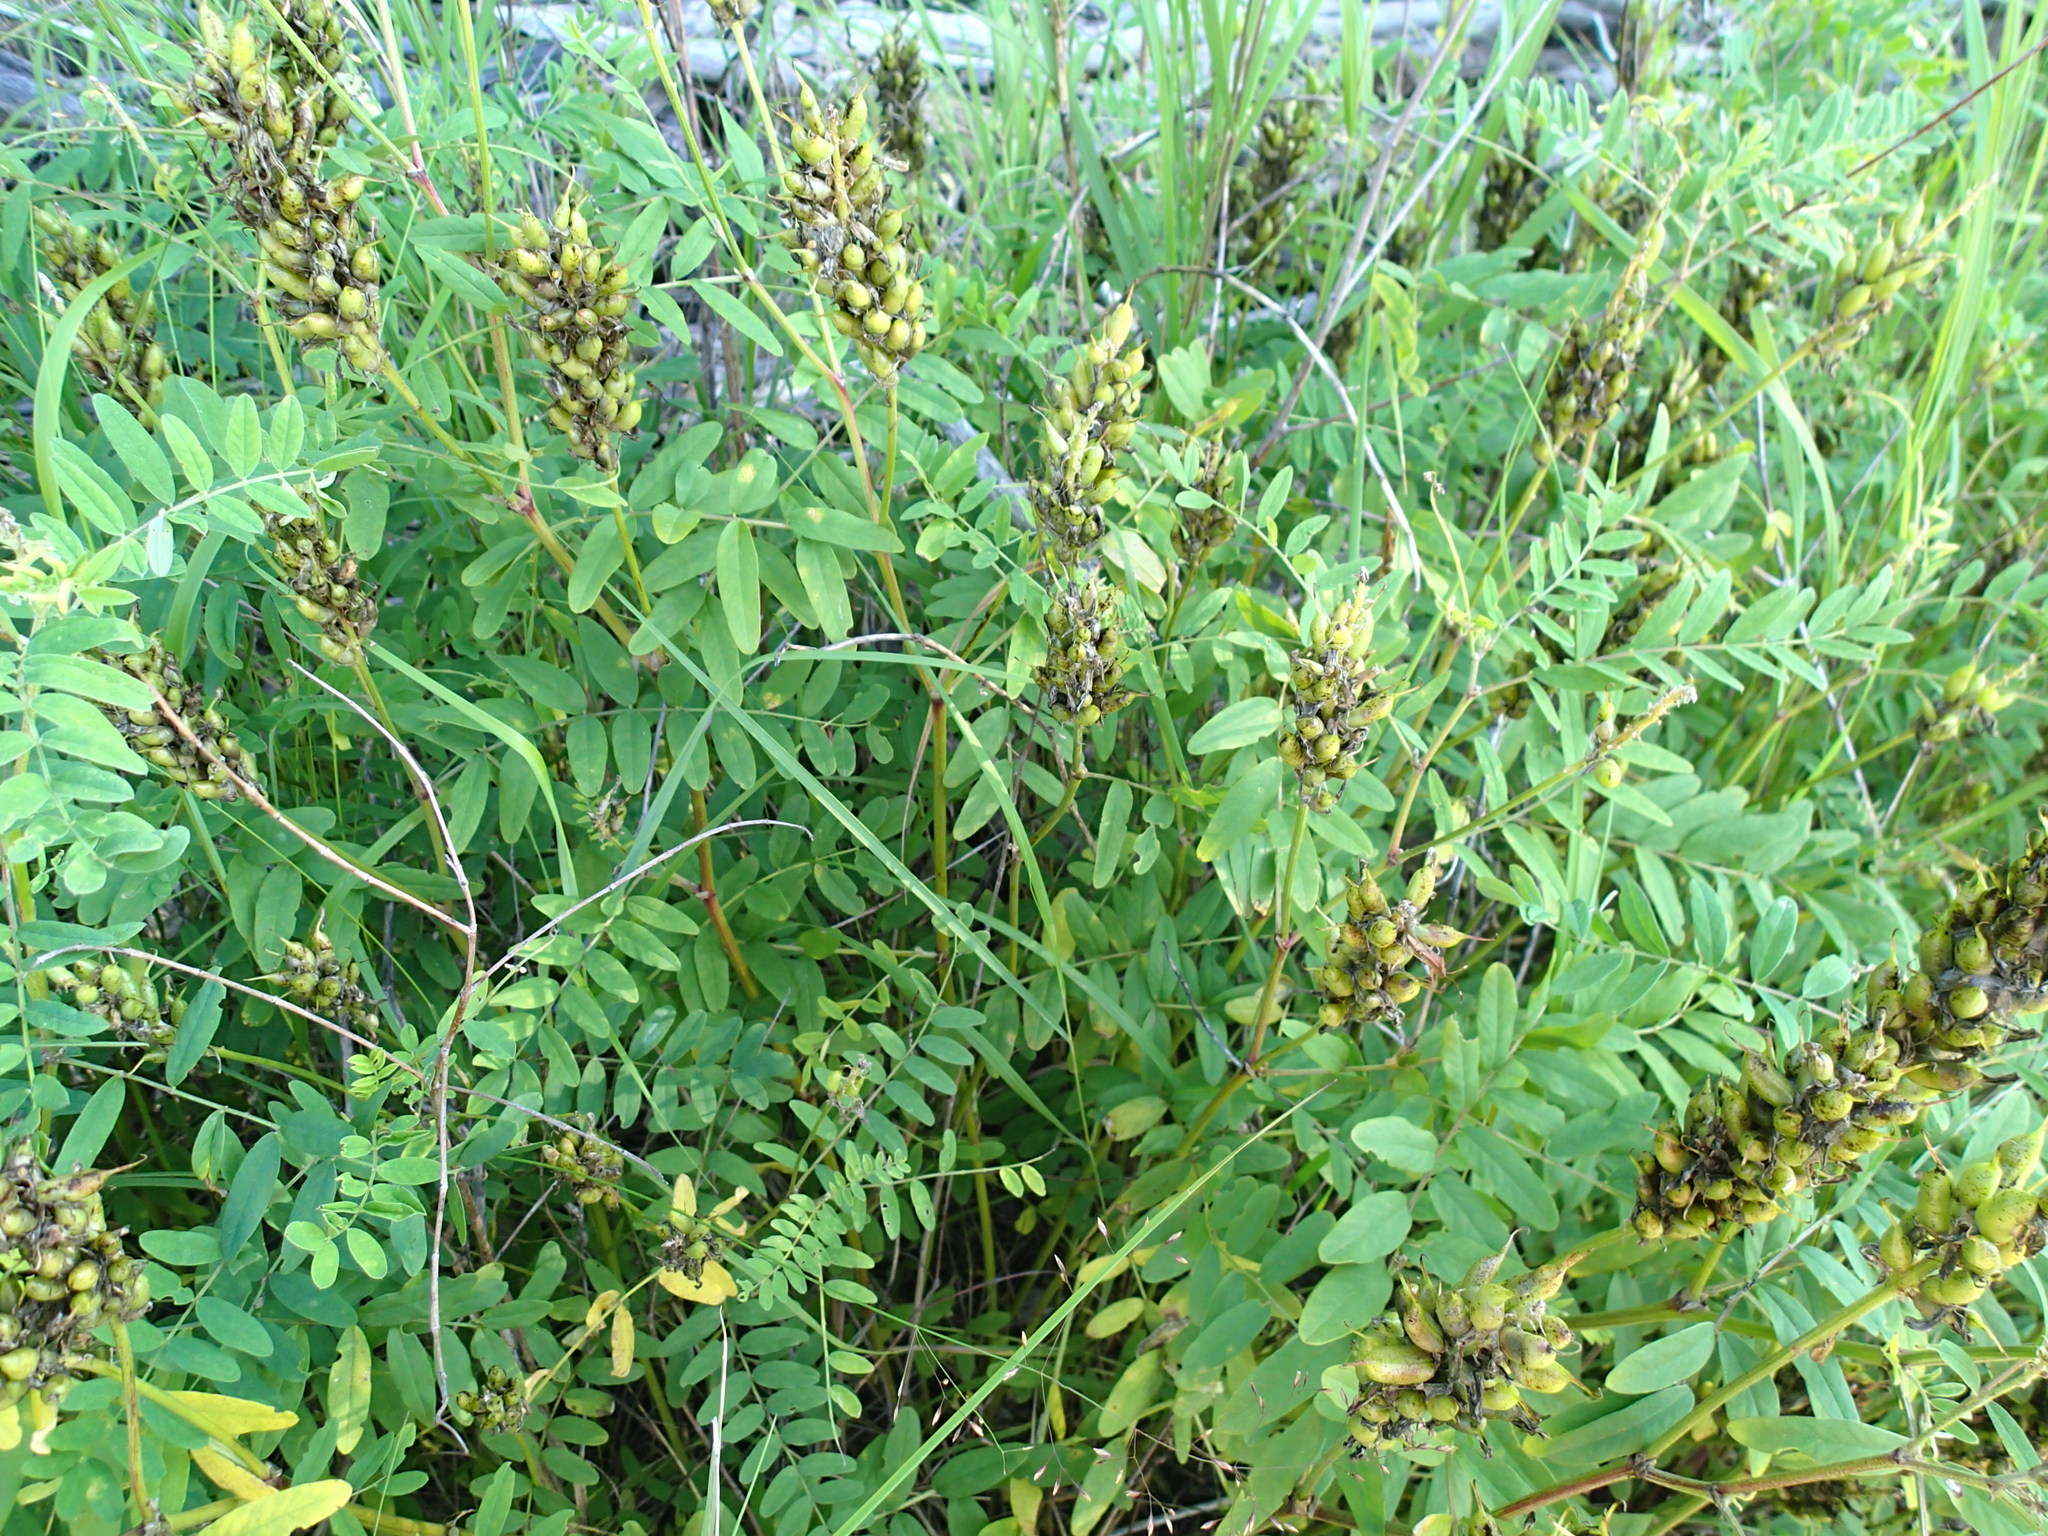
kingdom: Plantae
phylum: Tracheophyta
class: Magnoliopsida
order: Fabales
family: Fabaceae
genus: Astragalus
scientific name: Astragalus canadensis
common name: Canada milk-vetch
